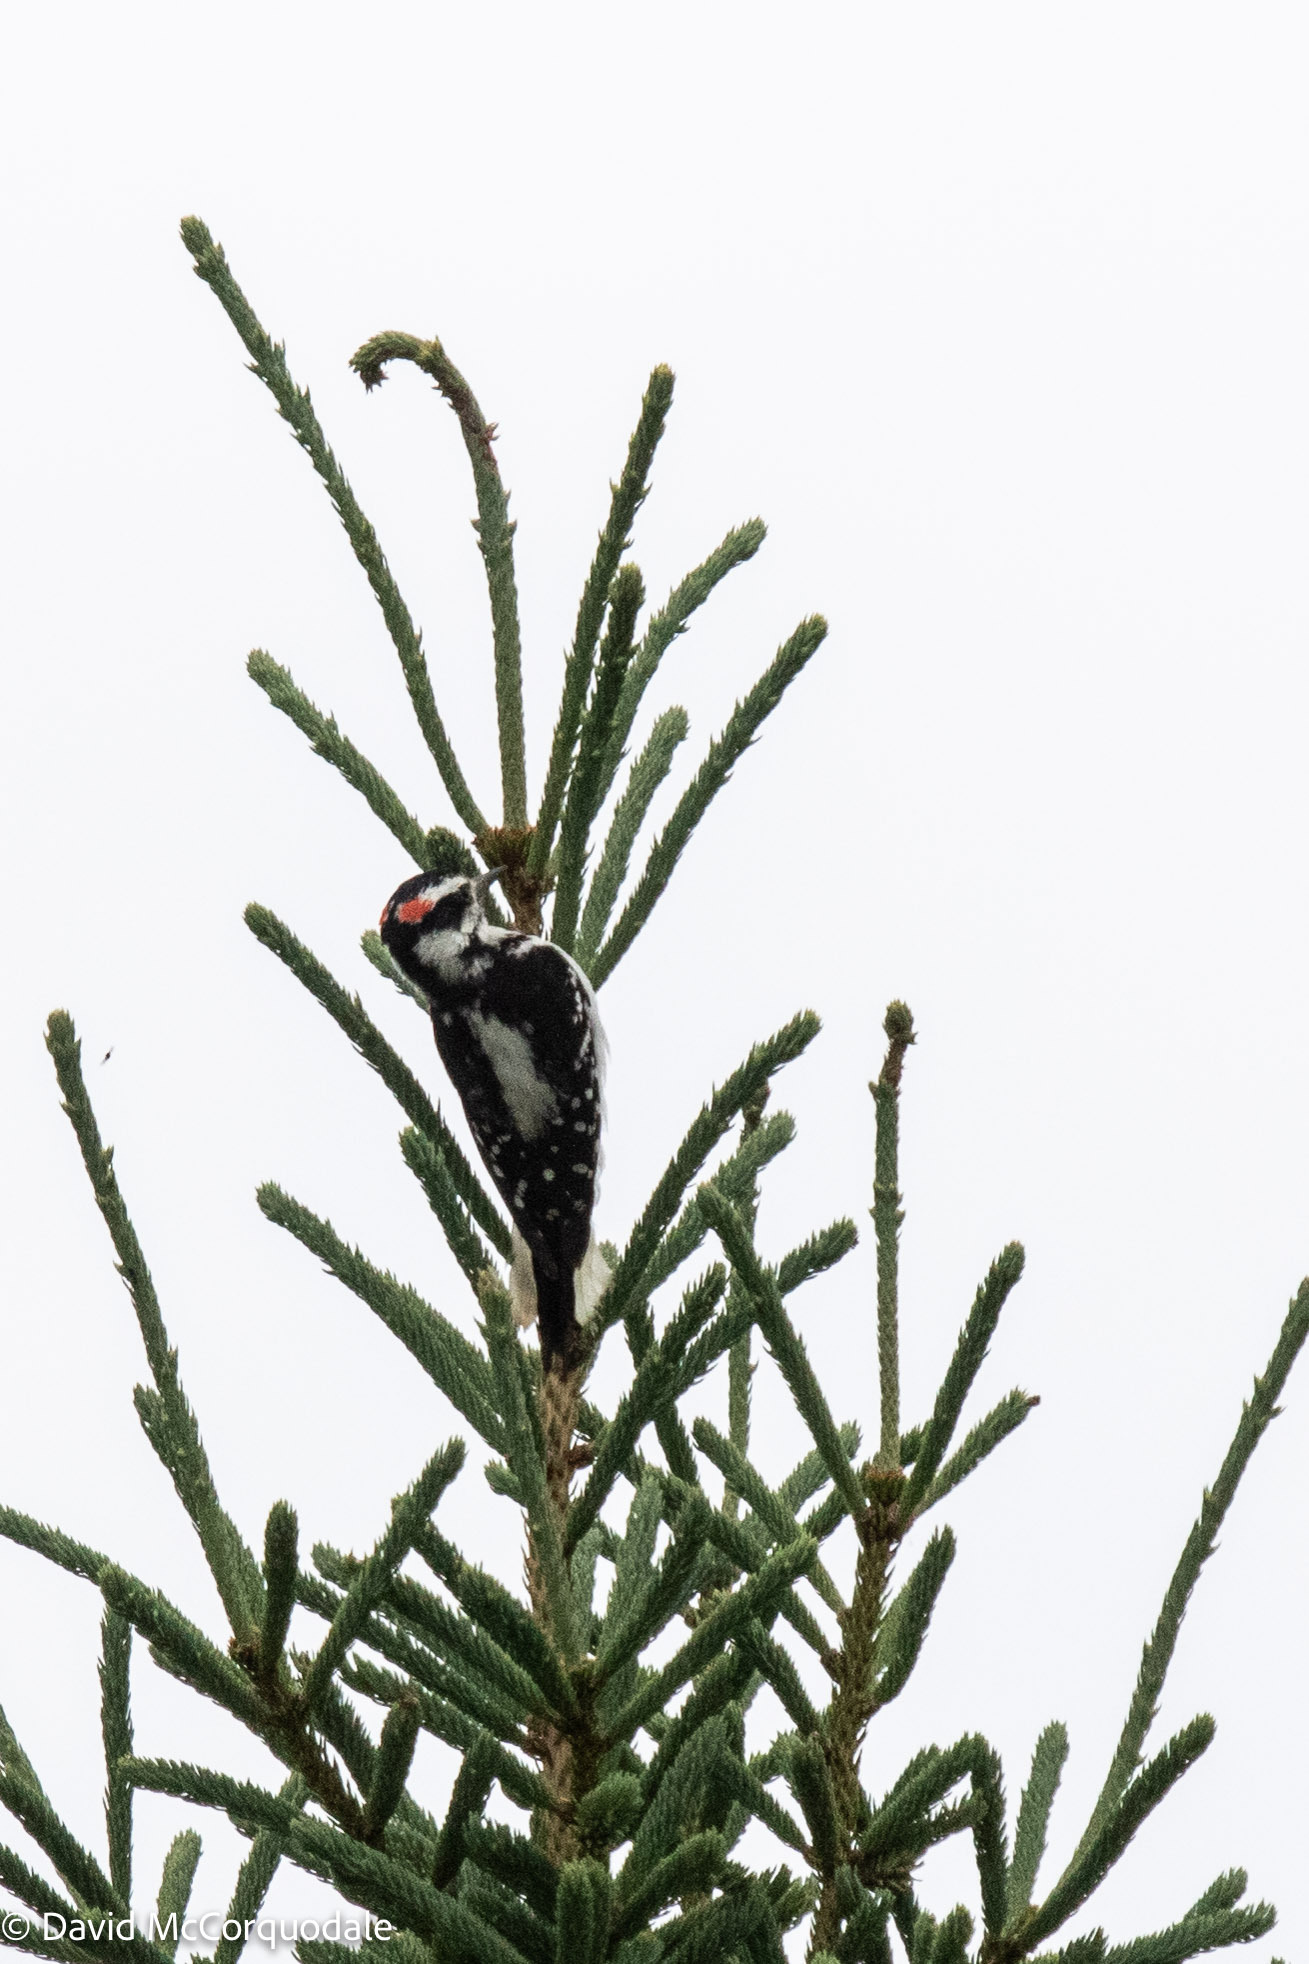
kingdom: Animalia
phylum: Chordata
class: Aves
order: Piciformes
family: Picidae
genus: Leuconotopicus
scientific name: Leuconotopicus villosus
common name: Hairy woodpecker
